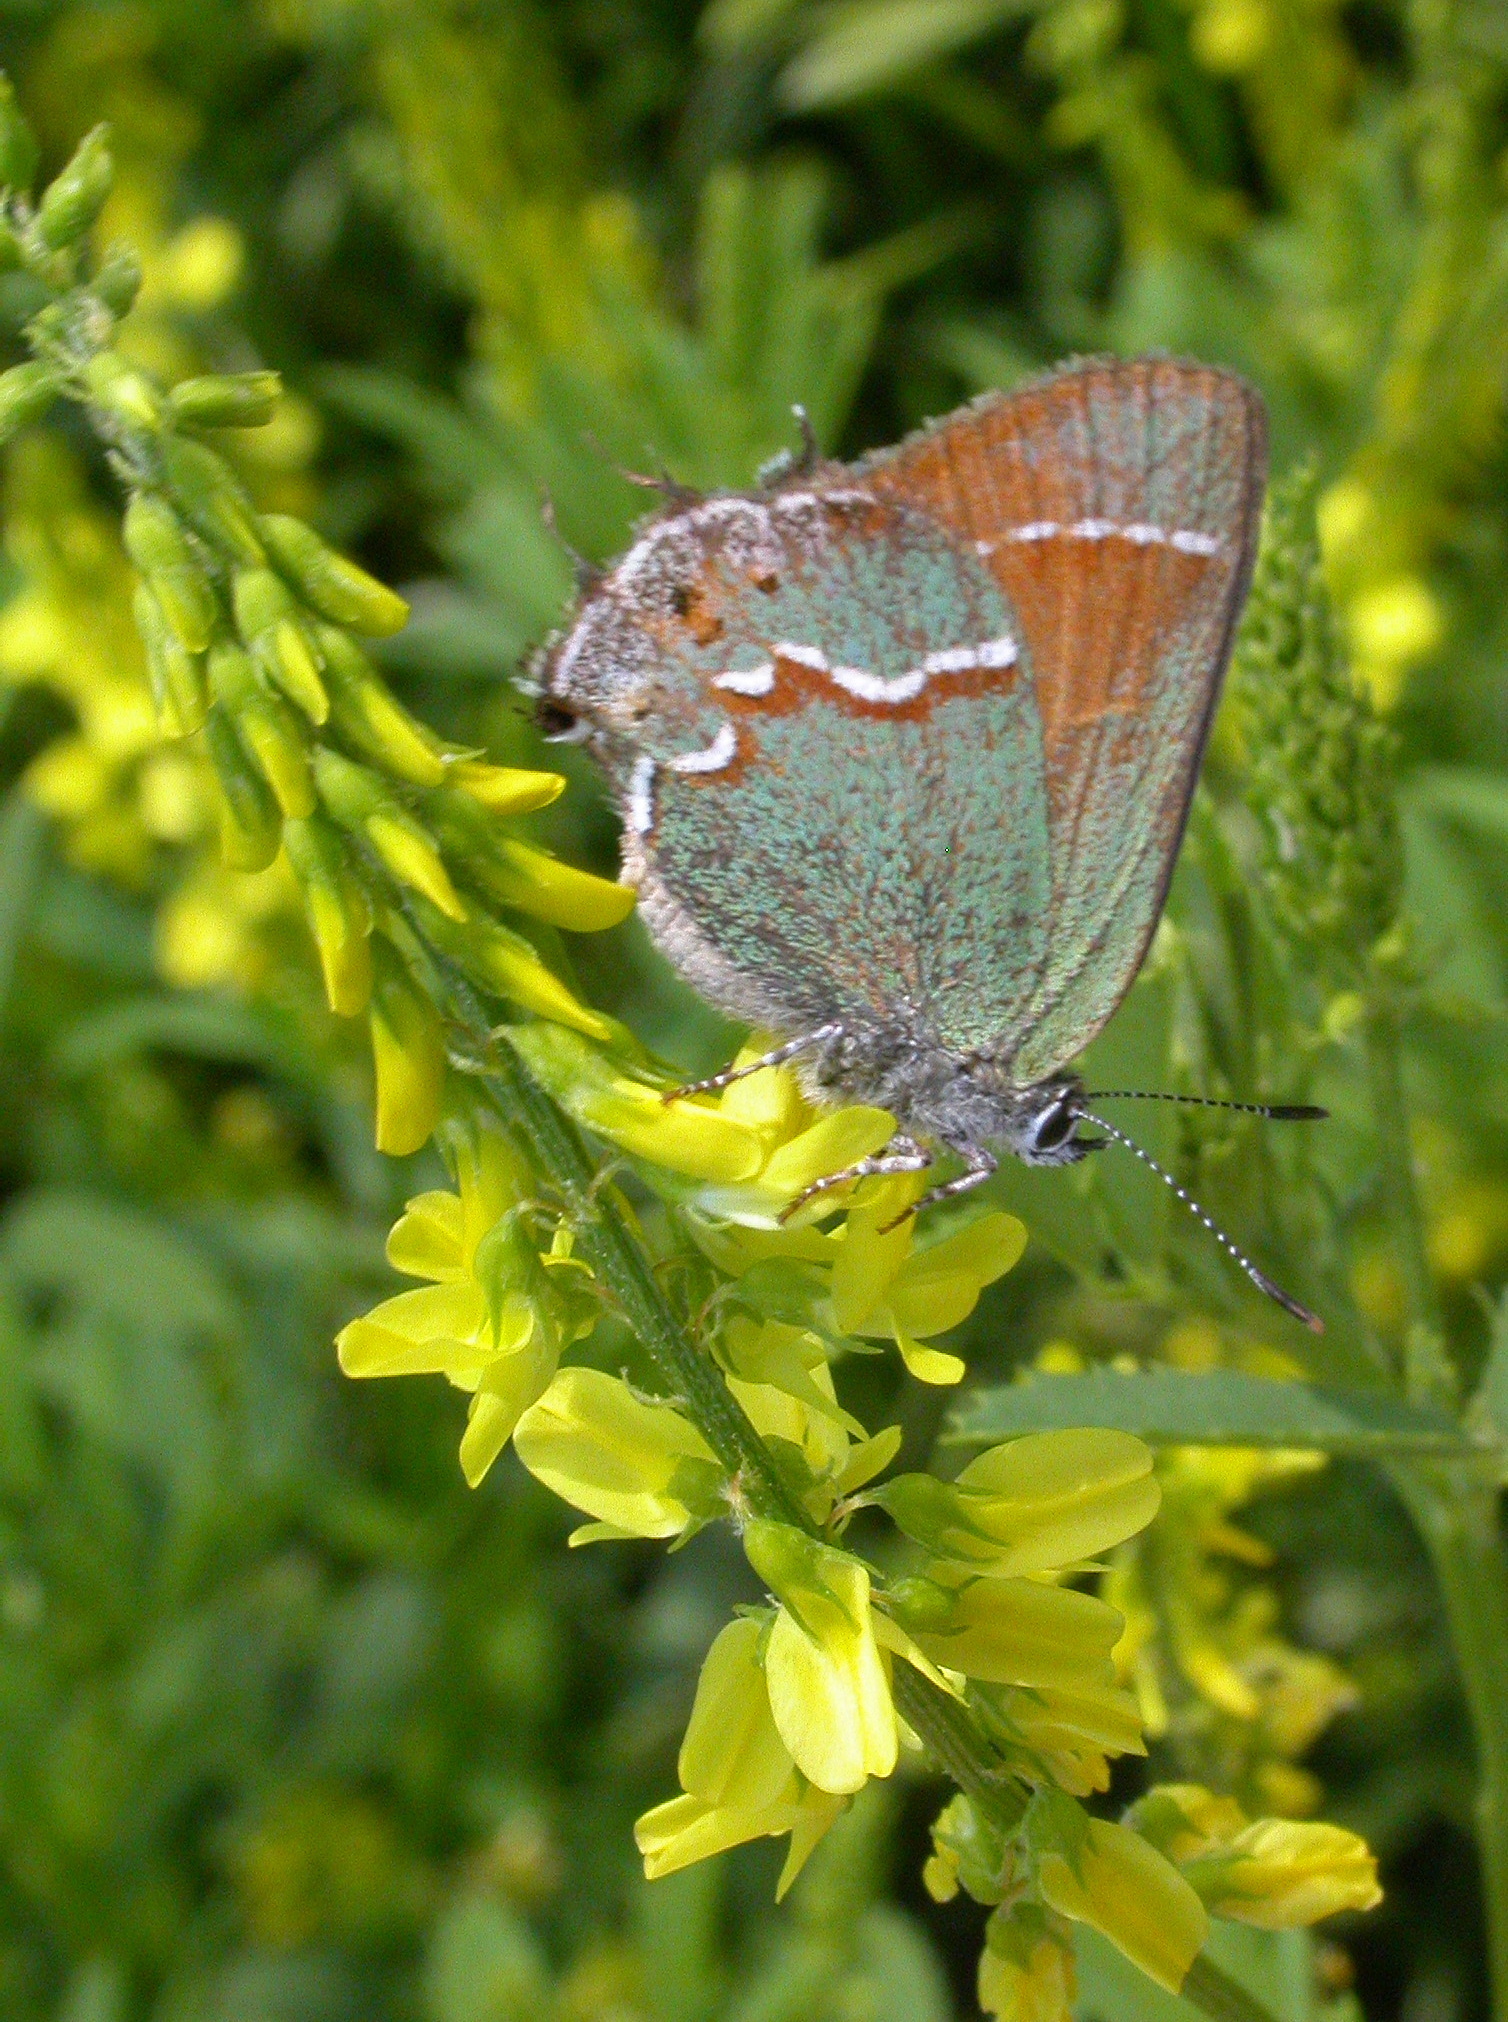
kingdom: Plantae
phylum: Tracheophyta
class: Magnoliopsida
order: Fabales
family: Fabaceae
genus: Melilotus
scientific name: Melilotus officinalis
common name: Sweetclover
